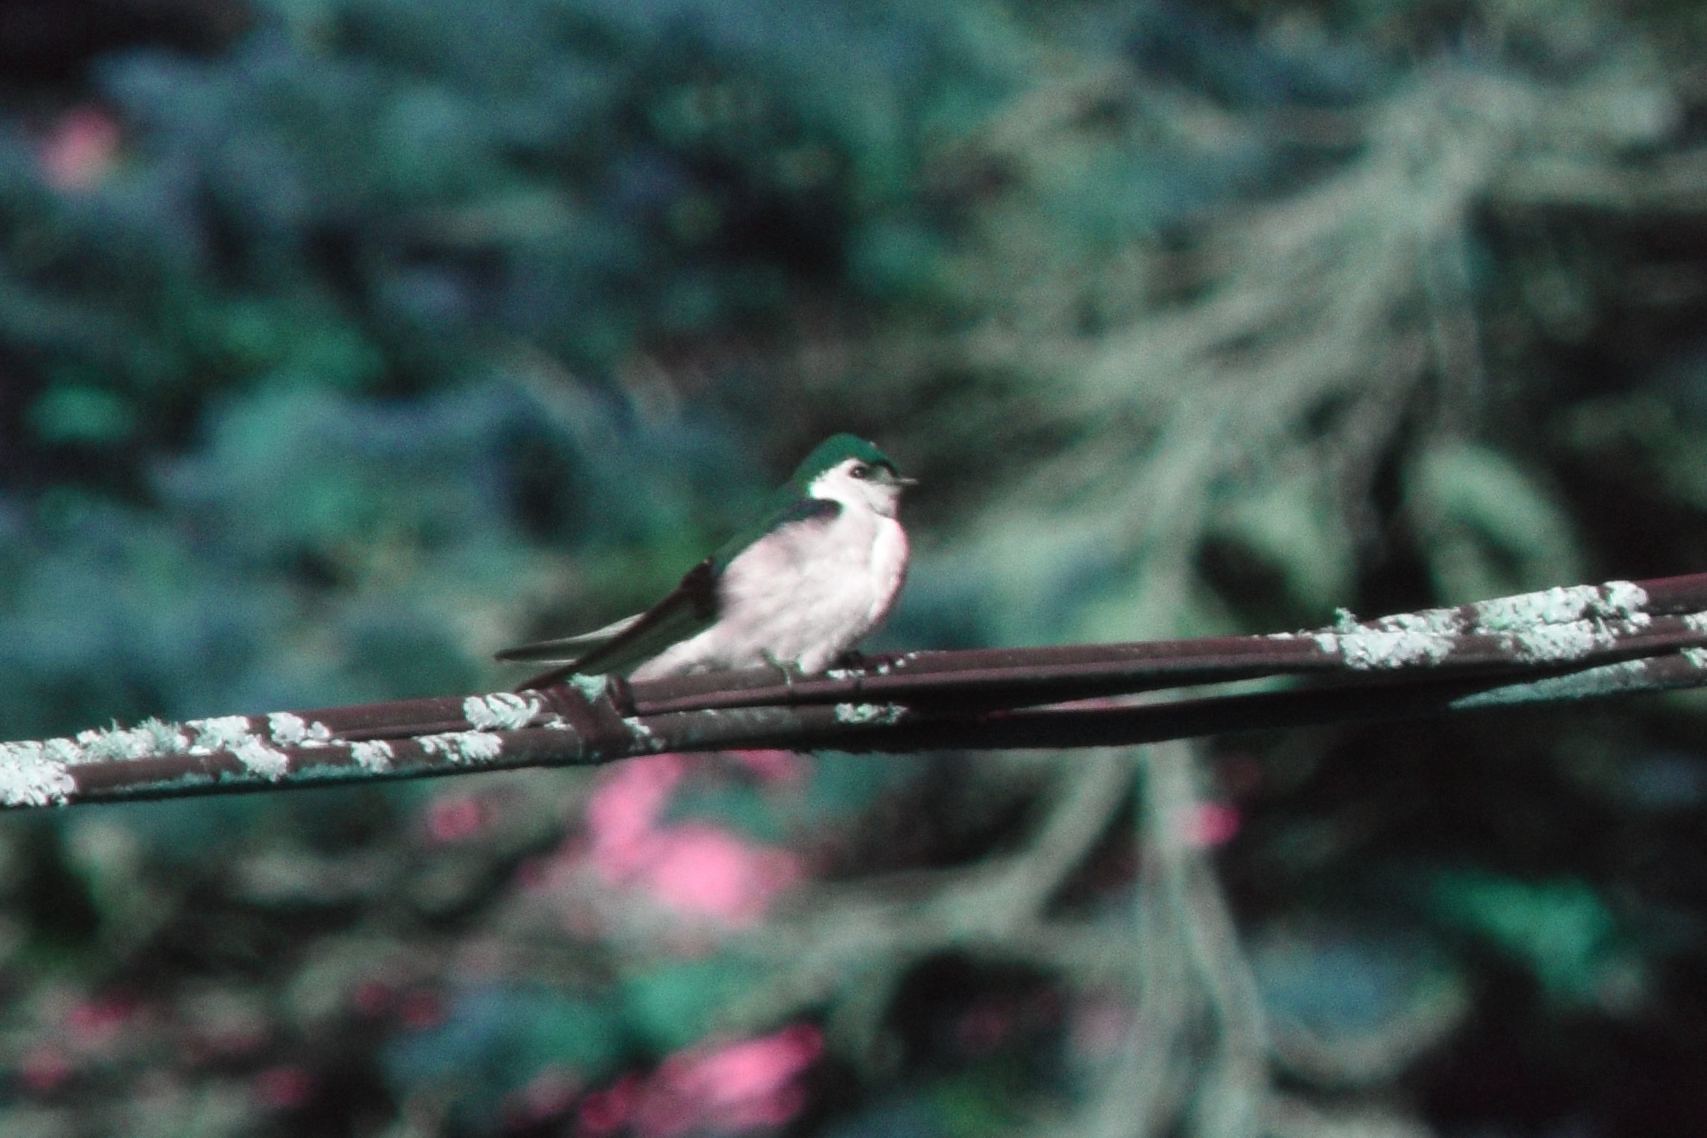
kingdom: Animalia
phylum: Chordata
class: Aves
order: Passeriformes
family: Hirundinidae
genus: Tachycineta
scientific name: Tachycineta thalassina
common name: Violet-green swallow
